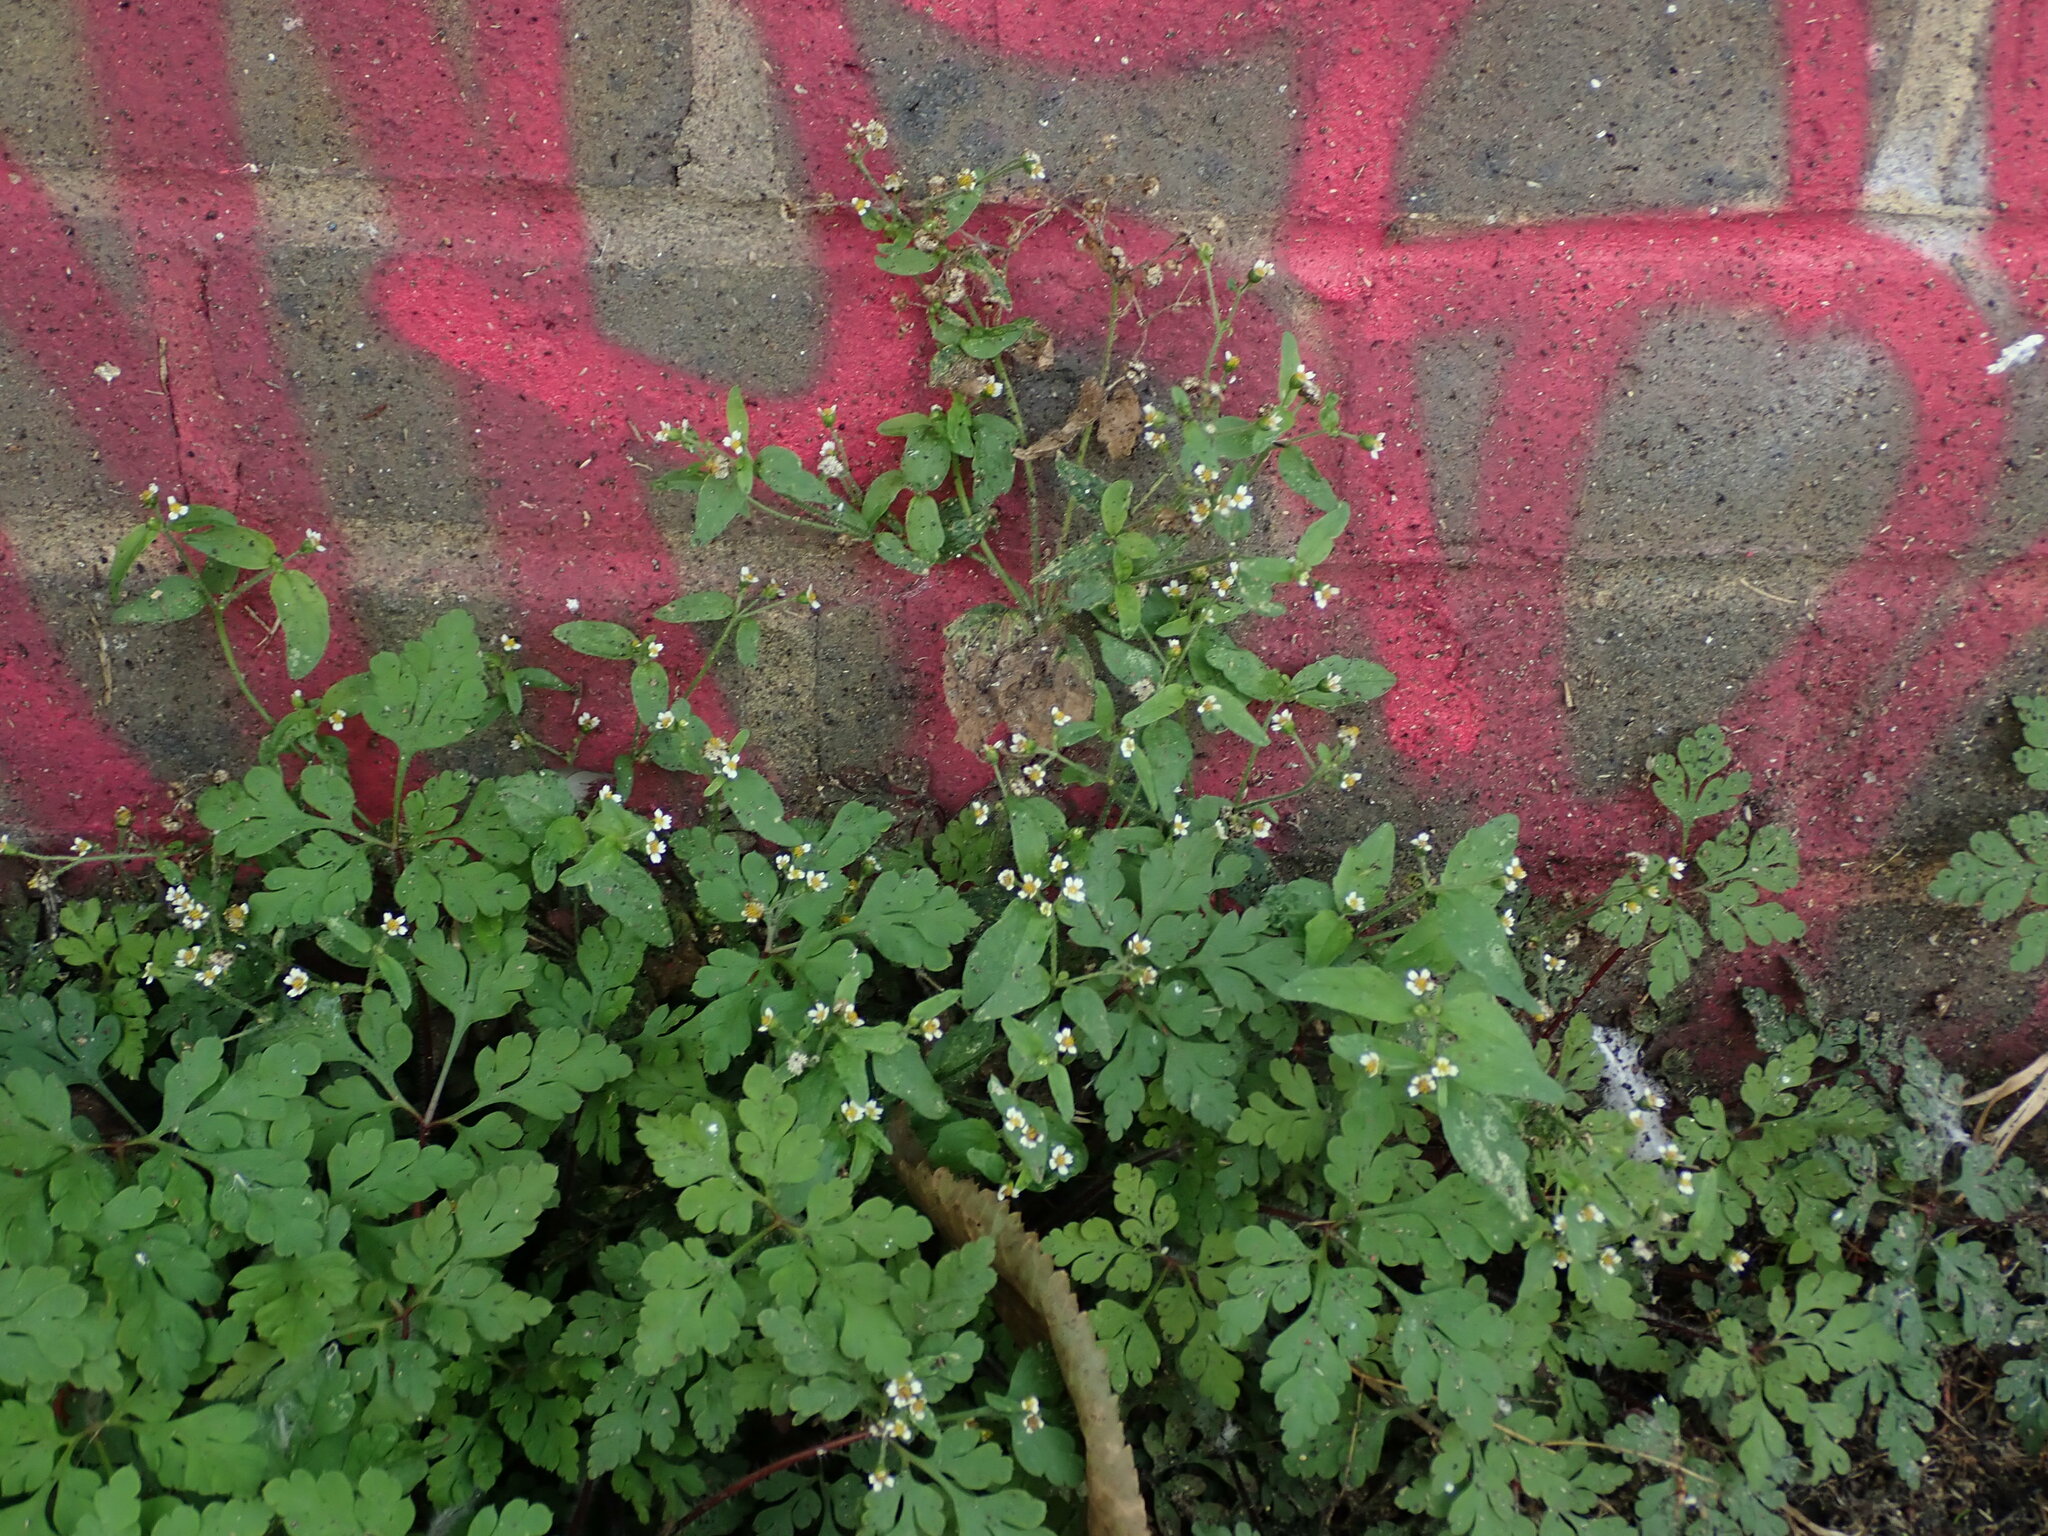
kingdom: Plantae
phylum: Tracheophyta
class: Magnoliopsida
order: Asterales
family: Asteraceae
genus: Galinsoga
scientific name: Galinsoga quadriradiata
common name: Shaggy soldier
